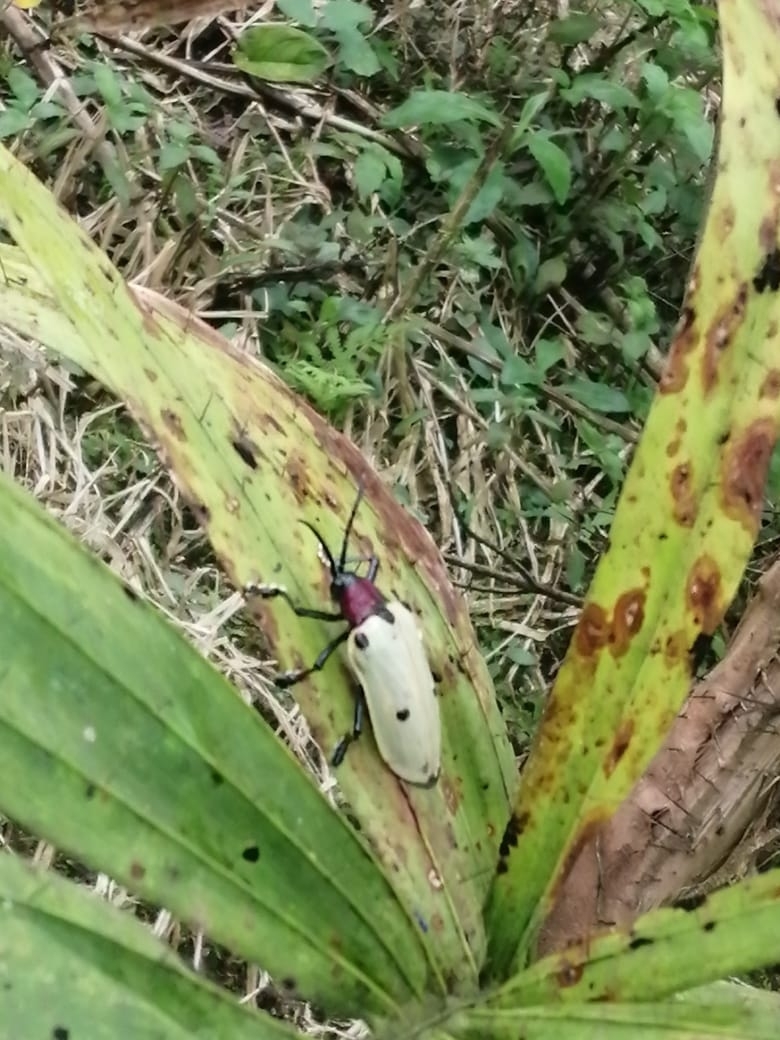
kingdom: Animalia
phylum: Arthropoda
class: Insecta
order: Coleoptera
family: Chrysomelidae
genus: Alurnus
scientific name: Alurnus humeralis
